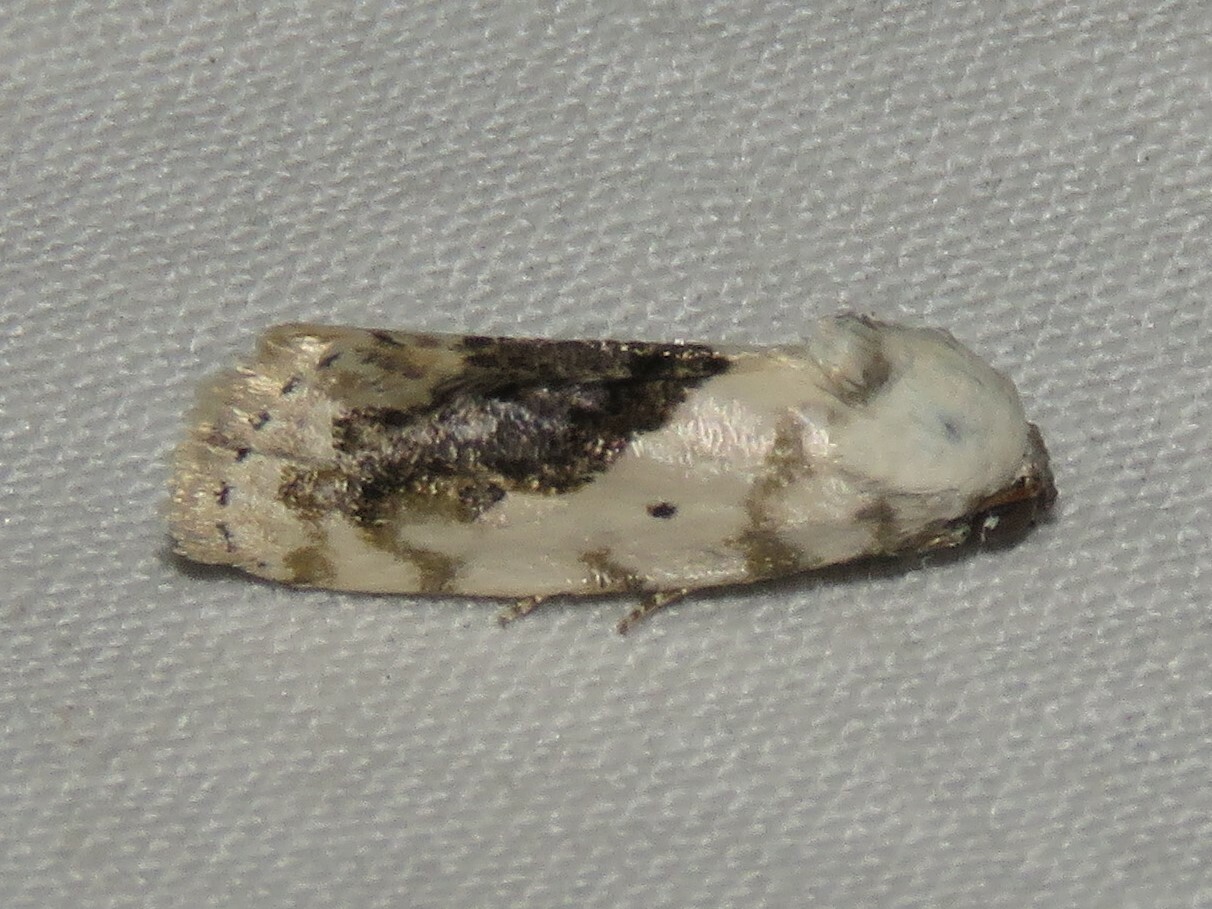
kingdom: Animalia
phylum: Arthropoda
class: Insecta
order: Lepidoptera
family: Noctuidae
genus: Acontia
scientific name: Acontia erastrioides
